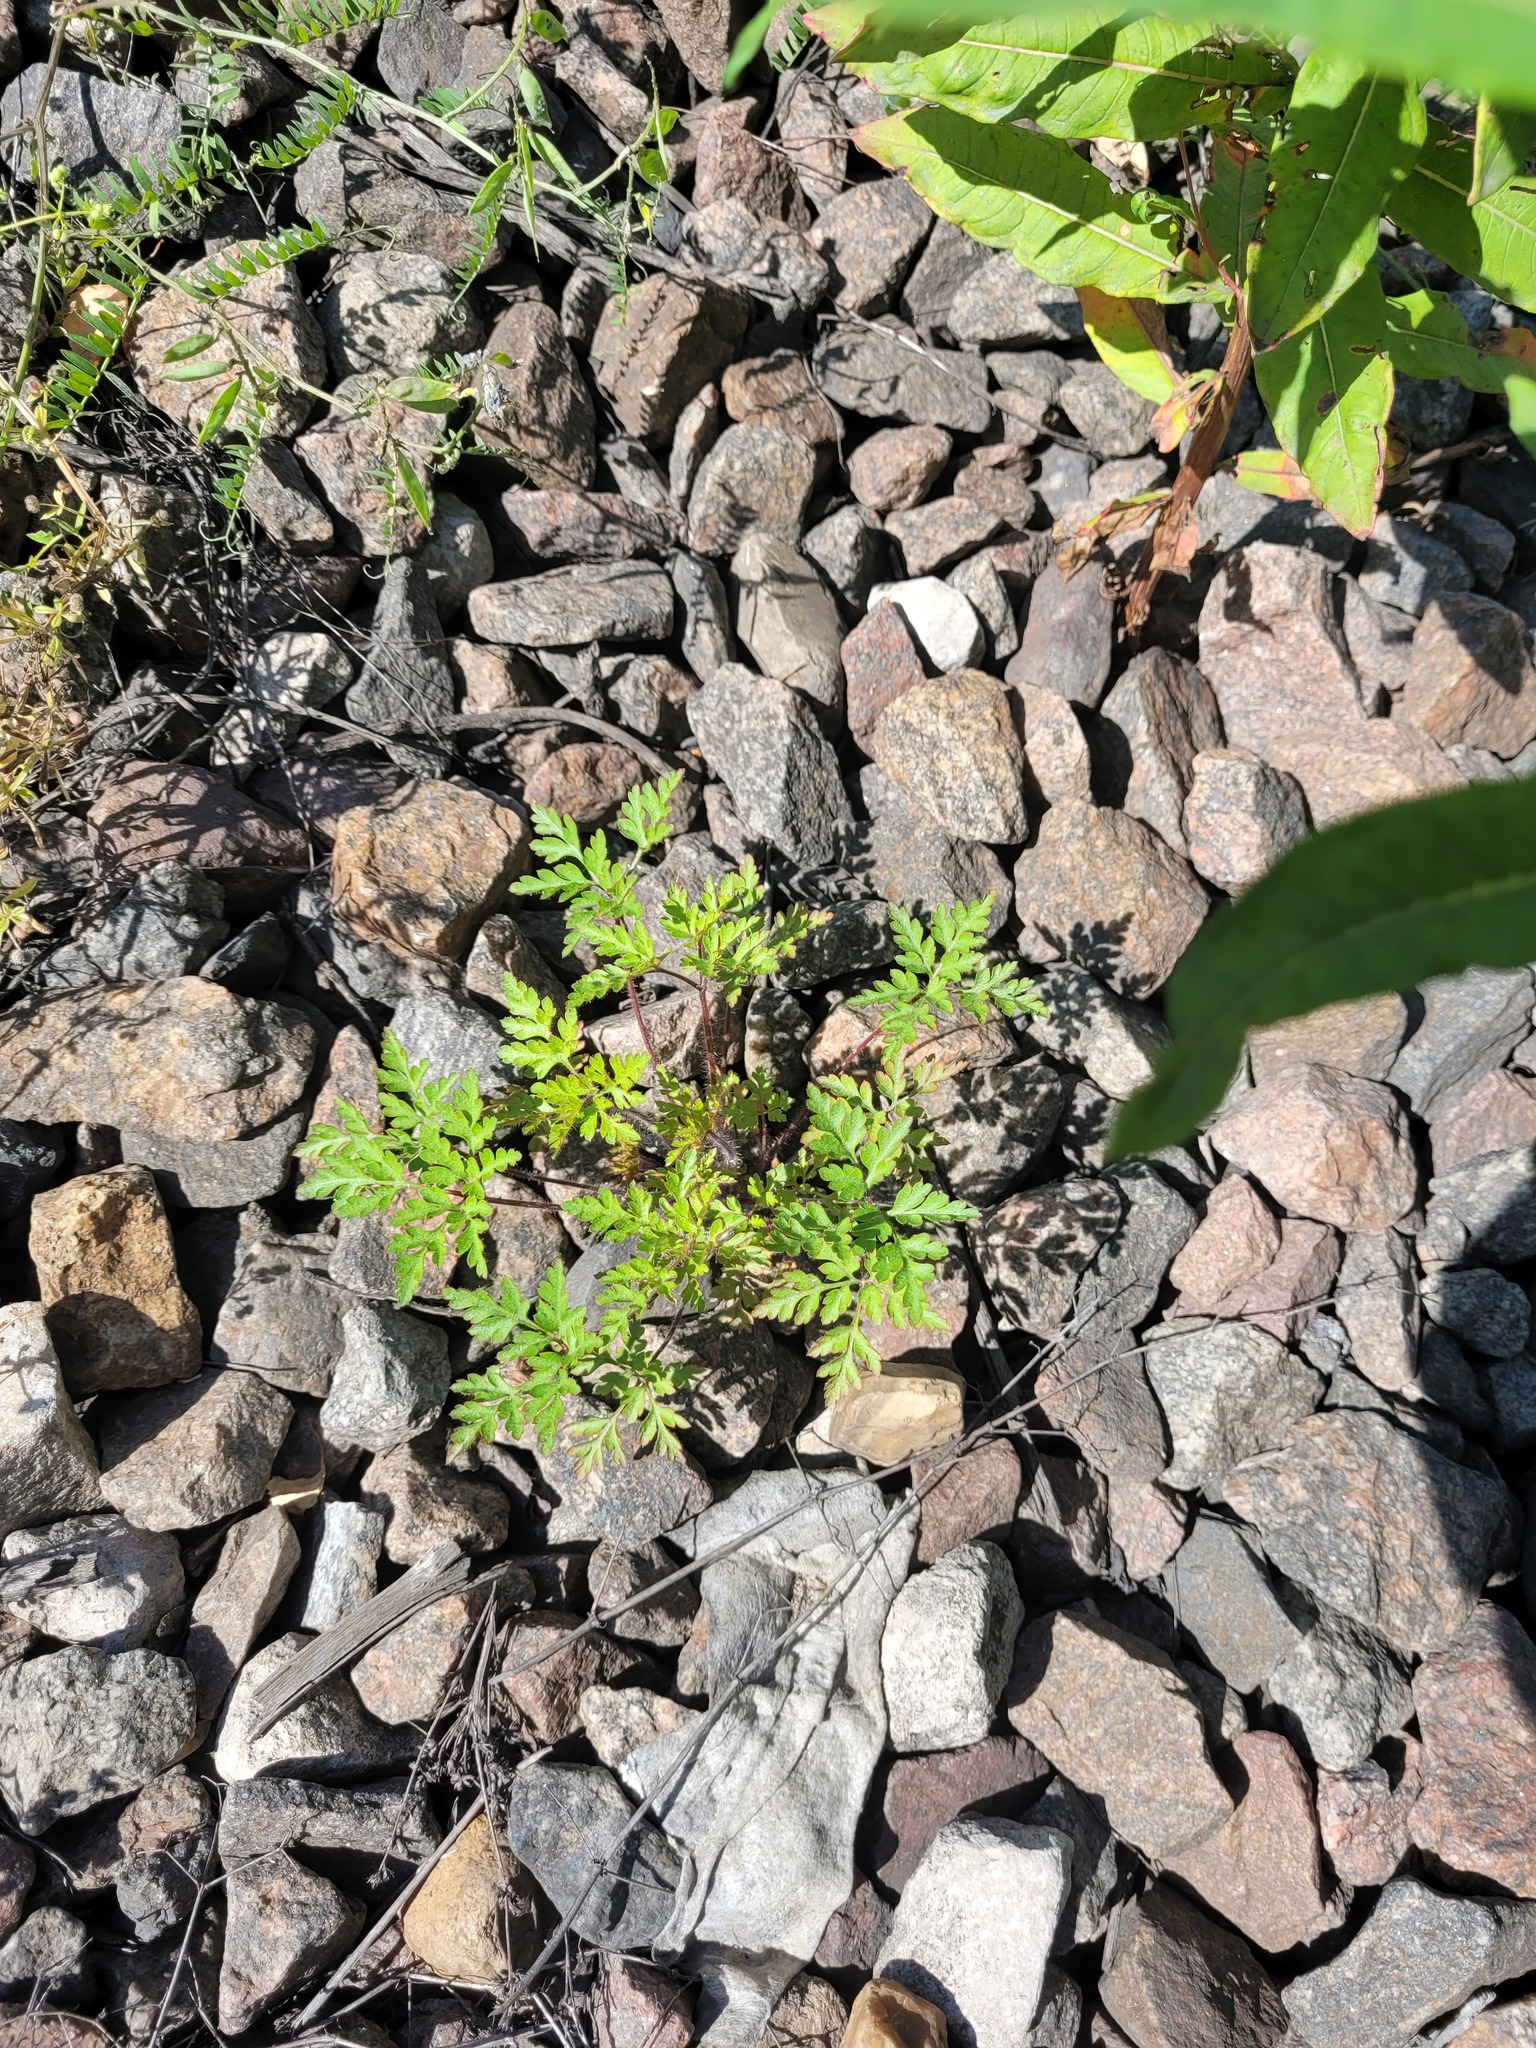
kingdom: Plantae
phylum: Tracheophyta
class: Magnoliopsida
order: Geraniales
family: Geraniaceae
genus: Geranium
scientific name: Geranium robertianum
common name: Herb-robert
